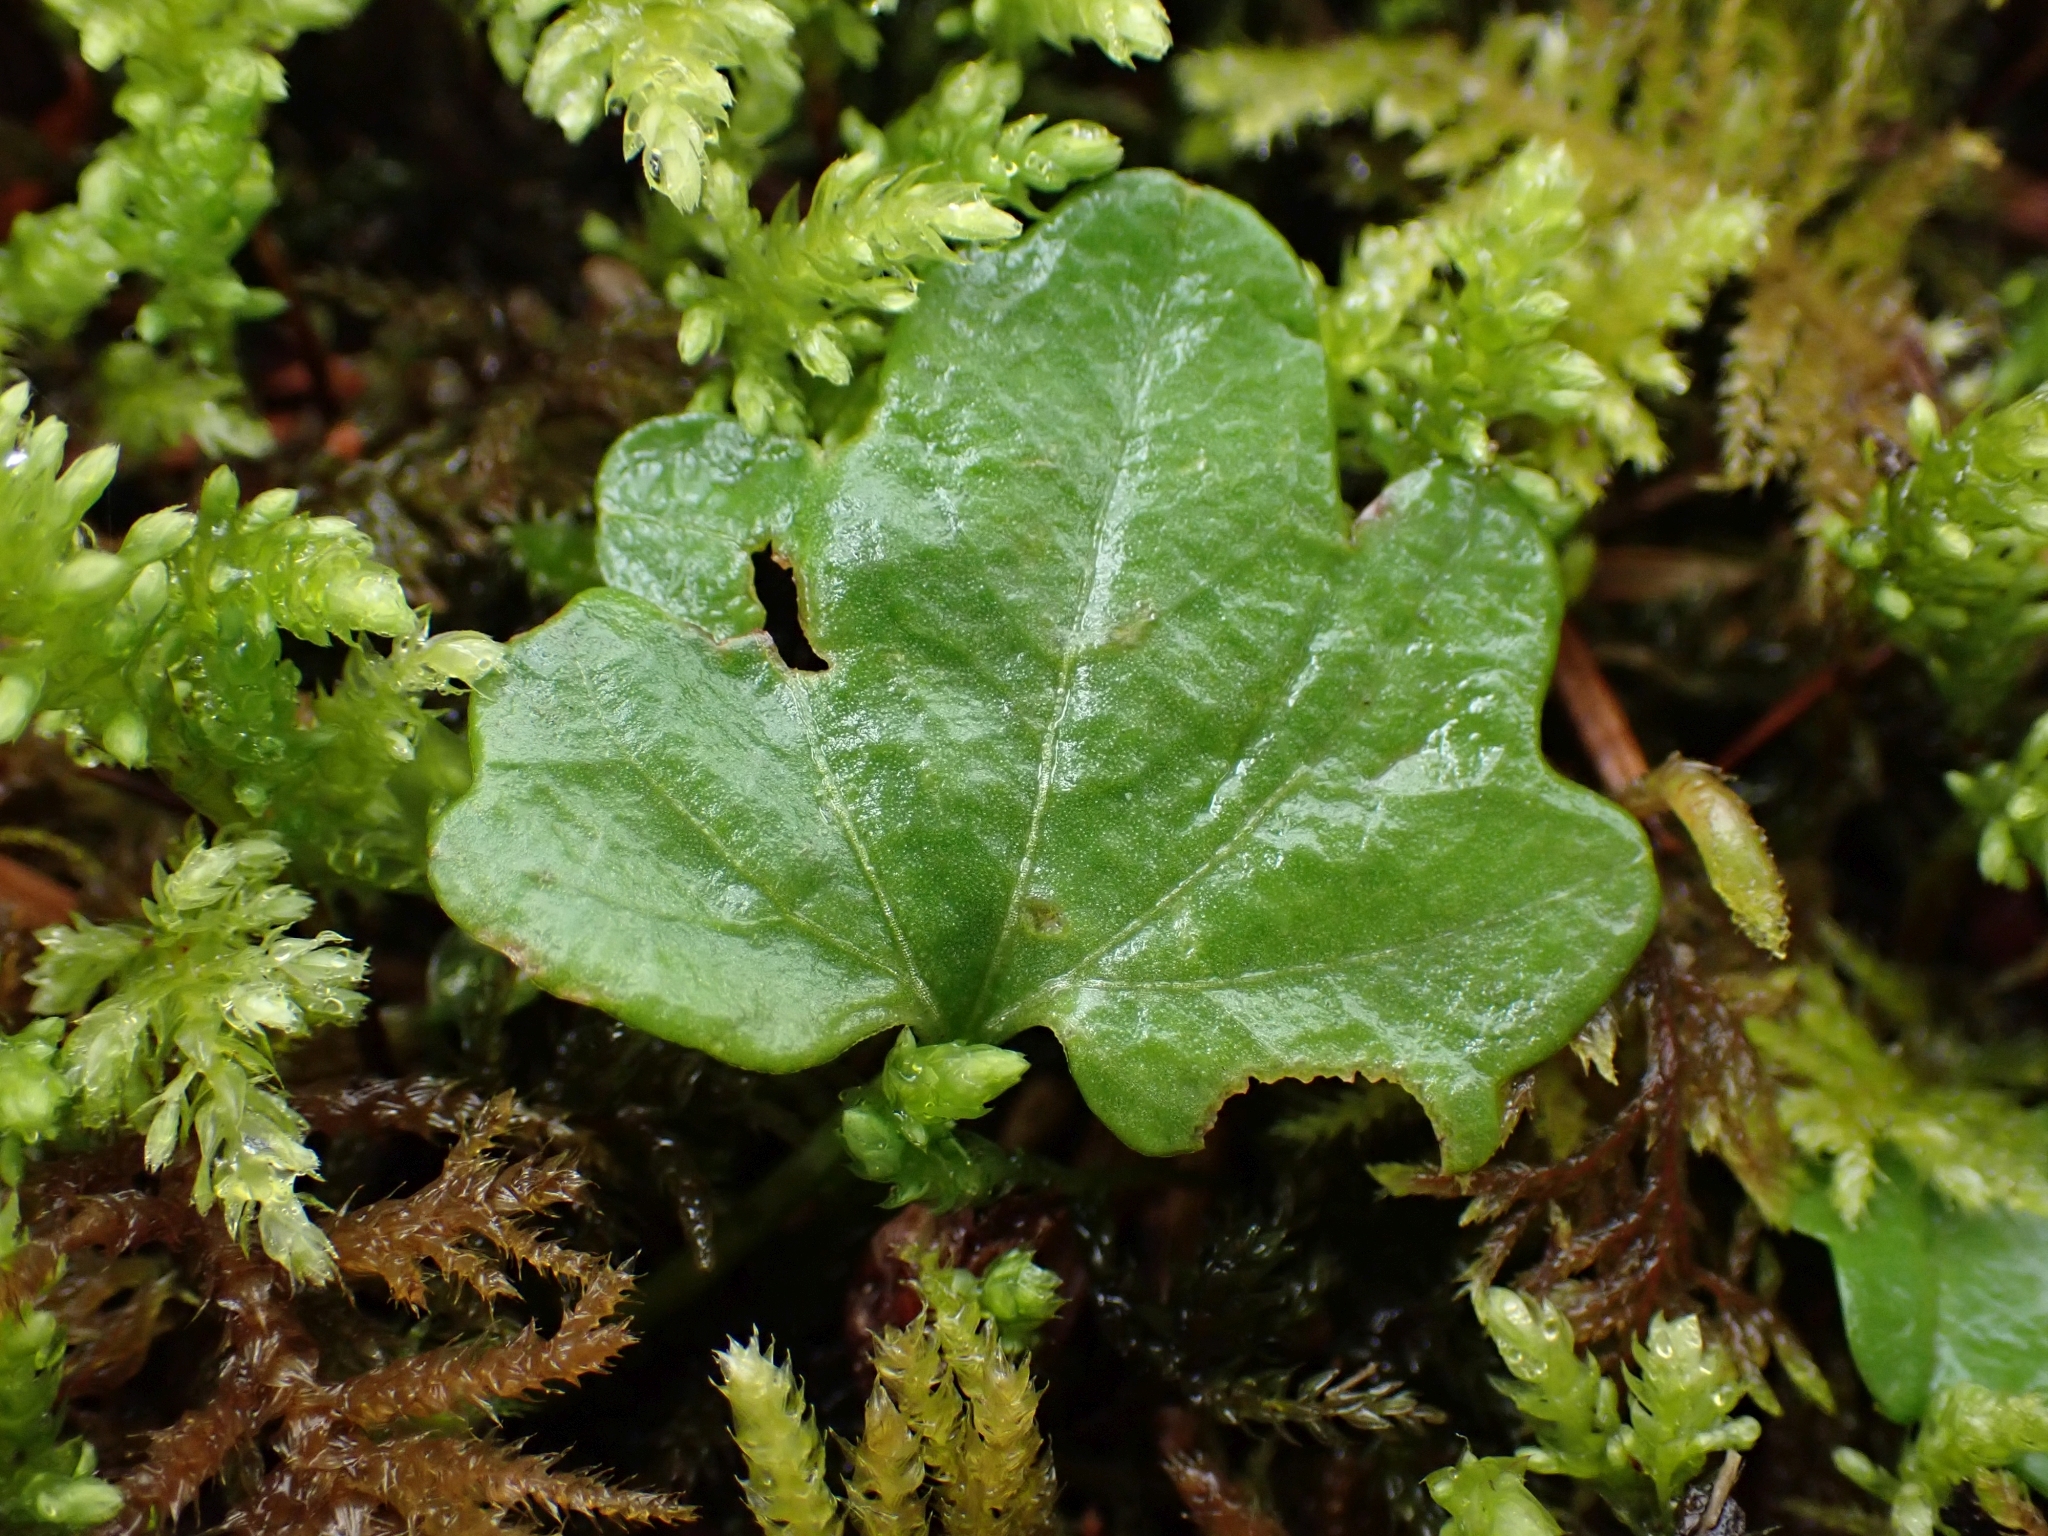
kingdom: Plantae
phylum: Tracheophyta
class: Magnoliopsida
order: Brassicales
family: Brassicaceae
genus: Cardamine
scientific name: Cardamine nuttallii
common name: Nuttall's toothwort
